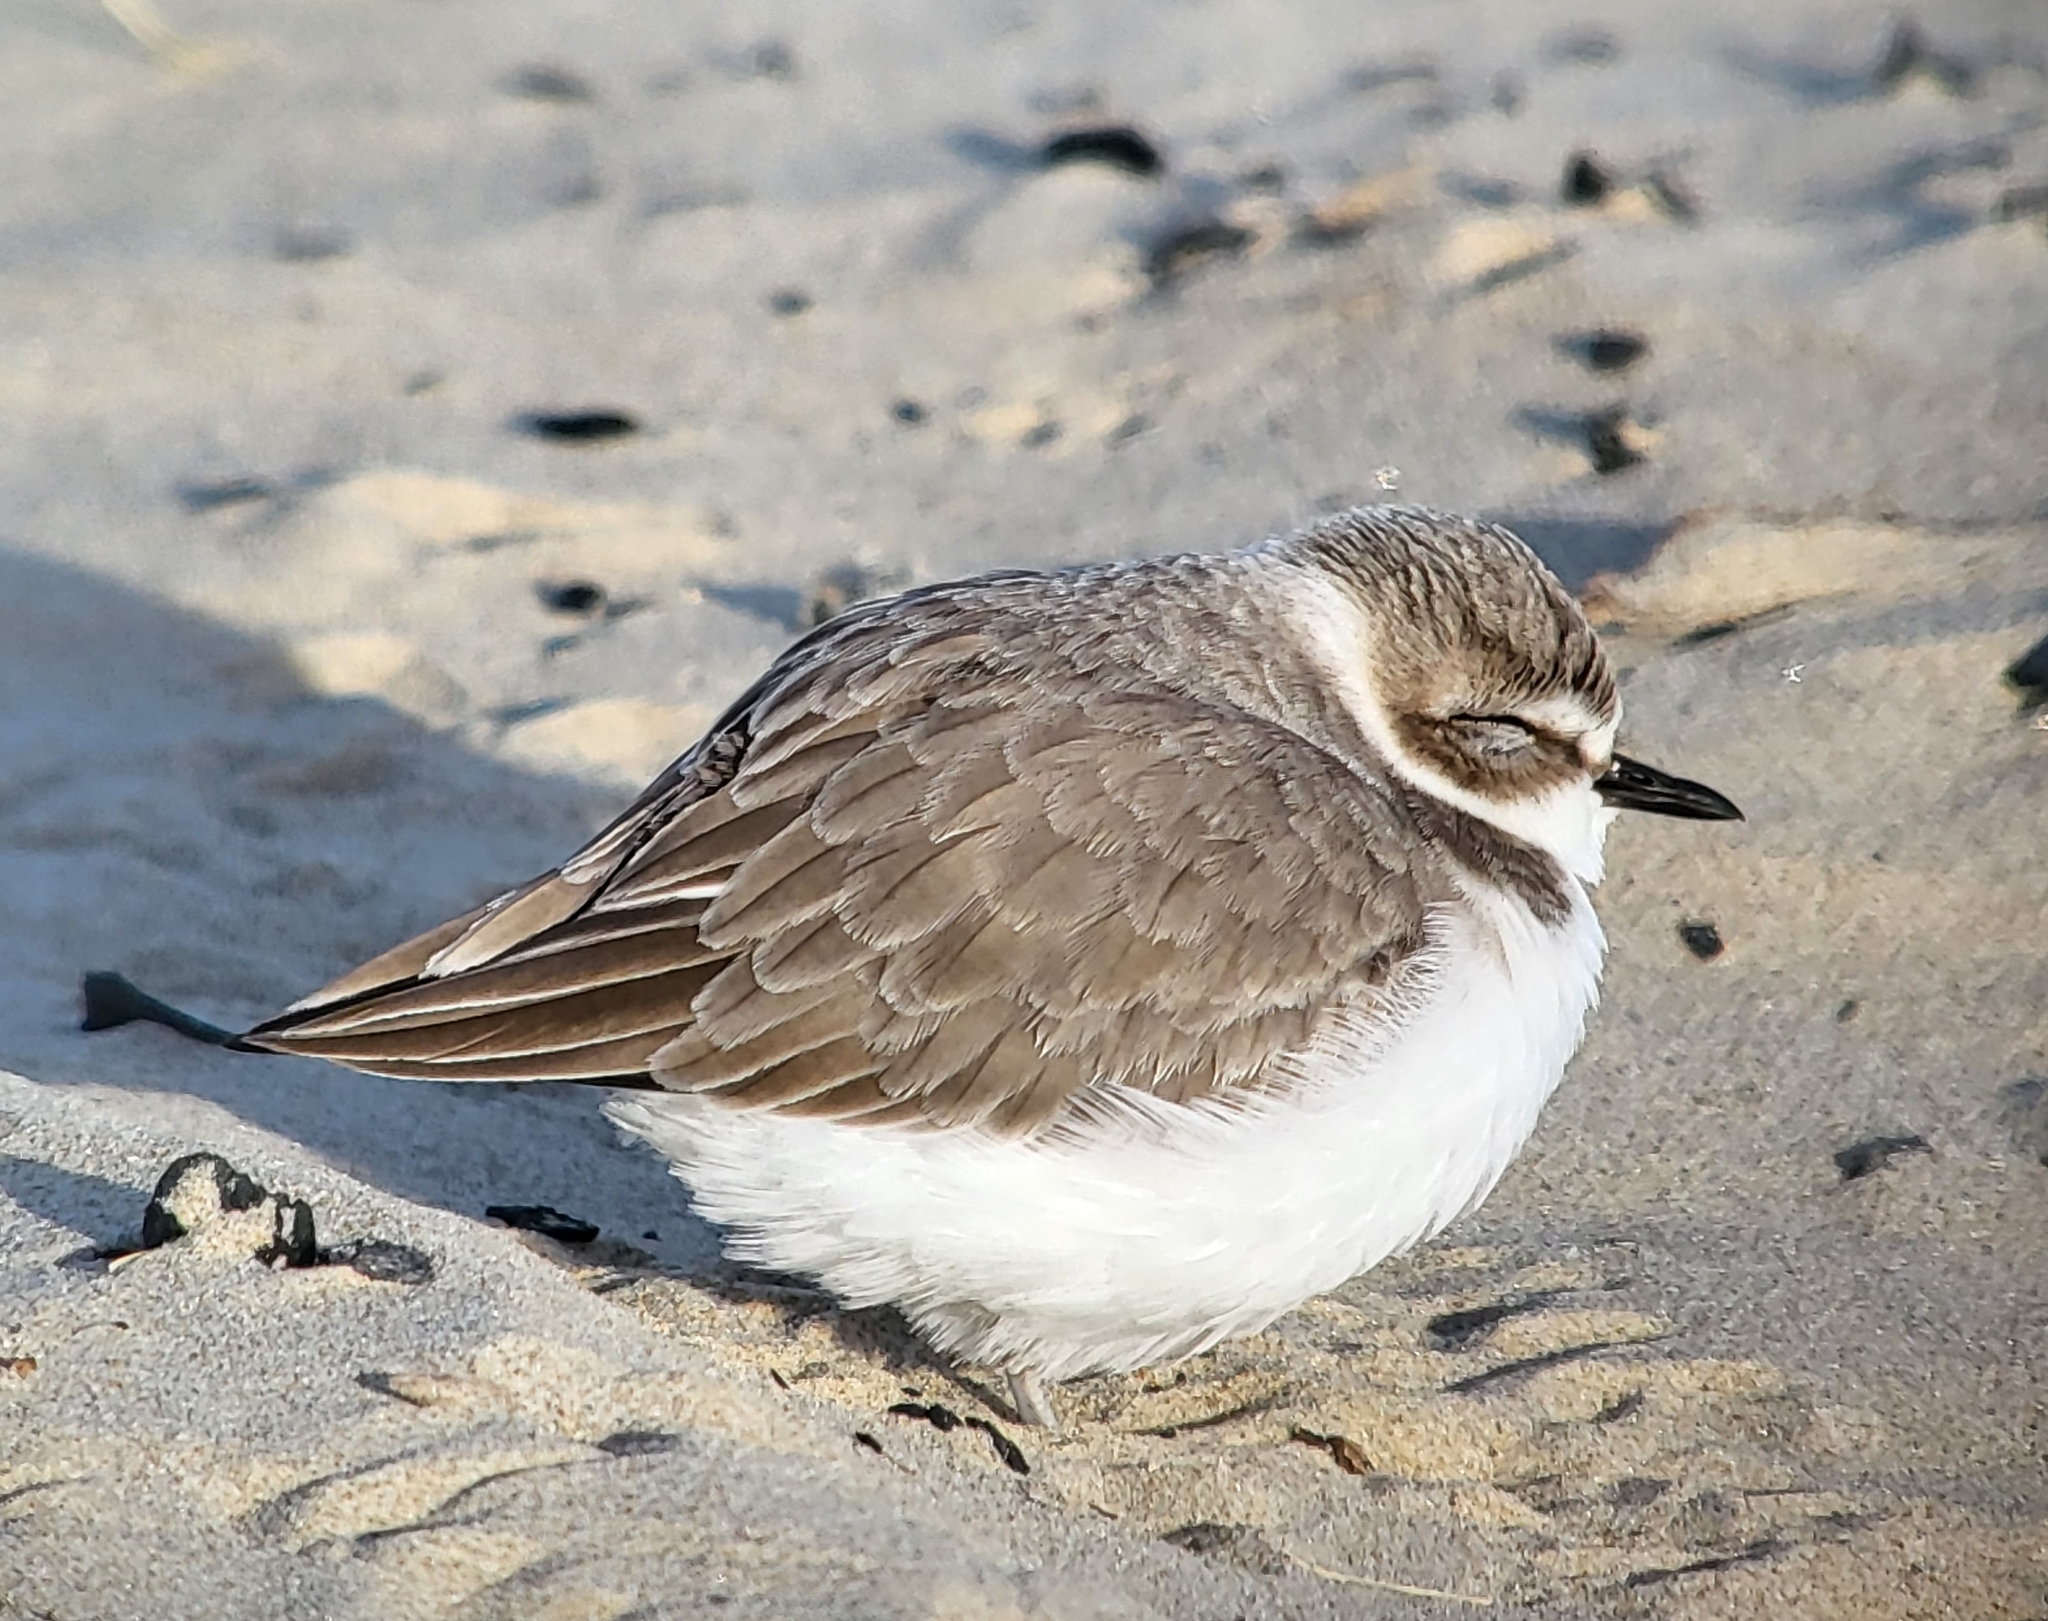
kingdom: Animalia
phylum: Chordata
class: Aves
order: Charadriiformes
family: Charadriidae
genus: Anarhynchus
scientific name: Anarhynchus
